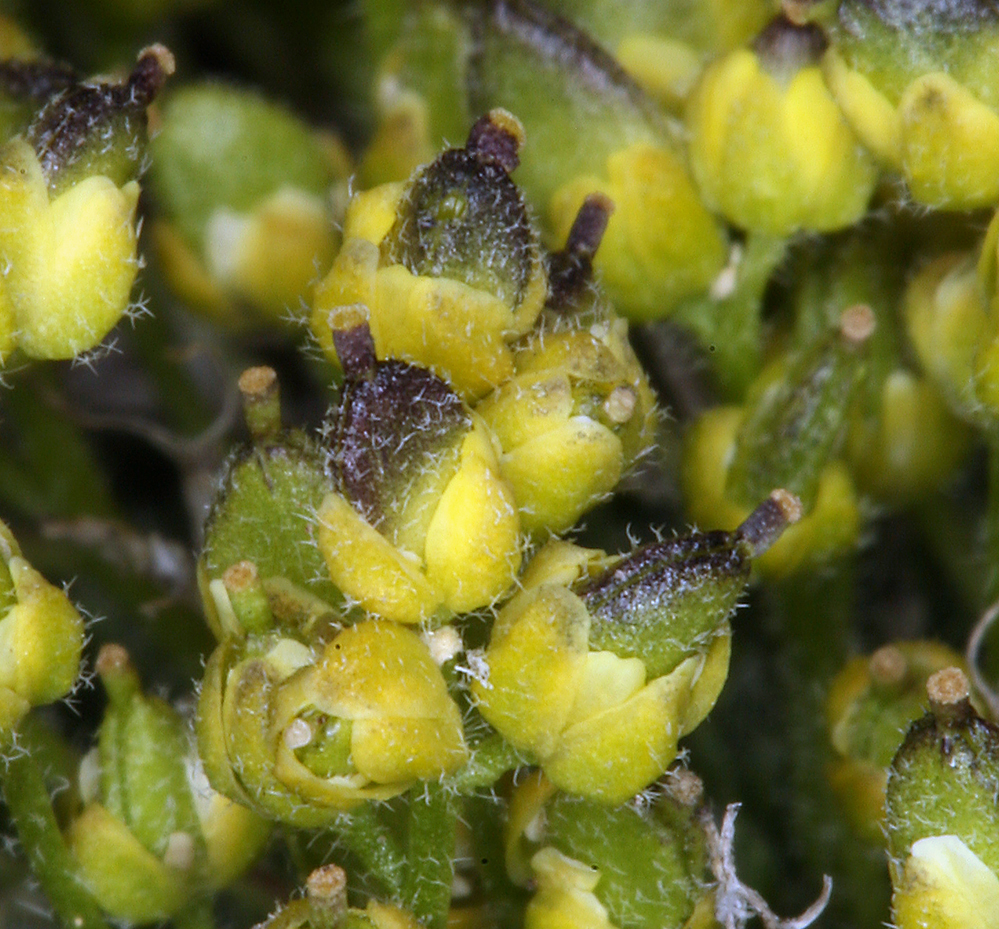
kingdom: Plantae
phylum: Tracheophyta
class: Magnoliopsida
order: Brassicales
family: Brassicaceae
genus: Cusickiella
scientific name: Cusickiella quadricostata
